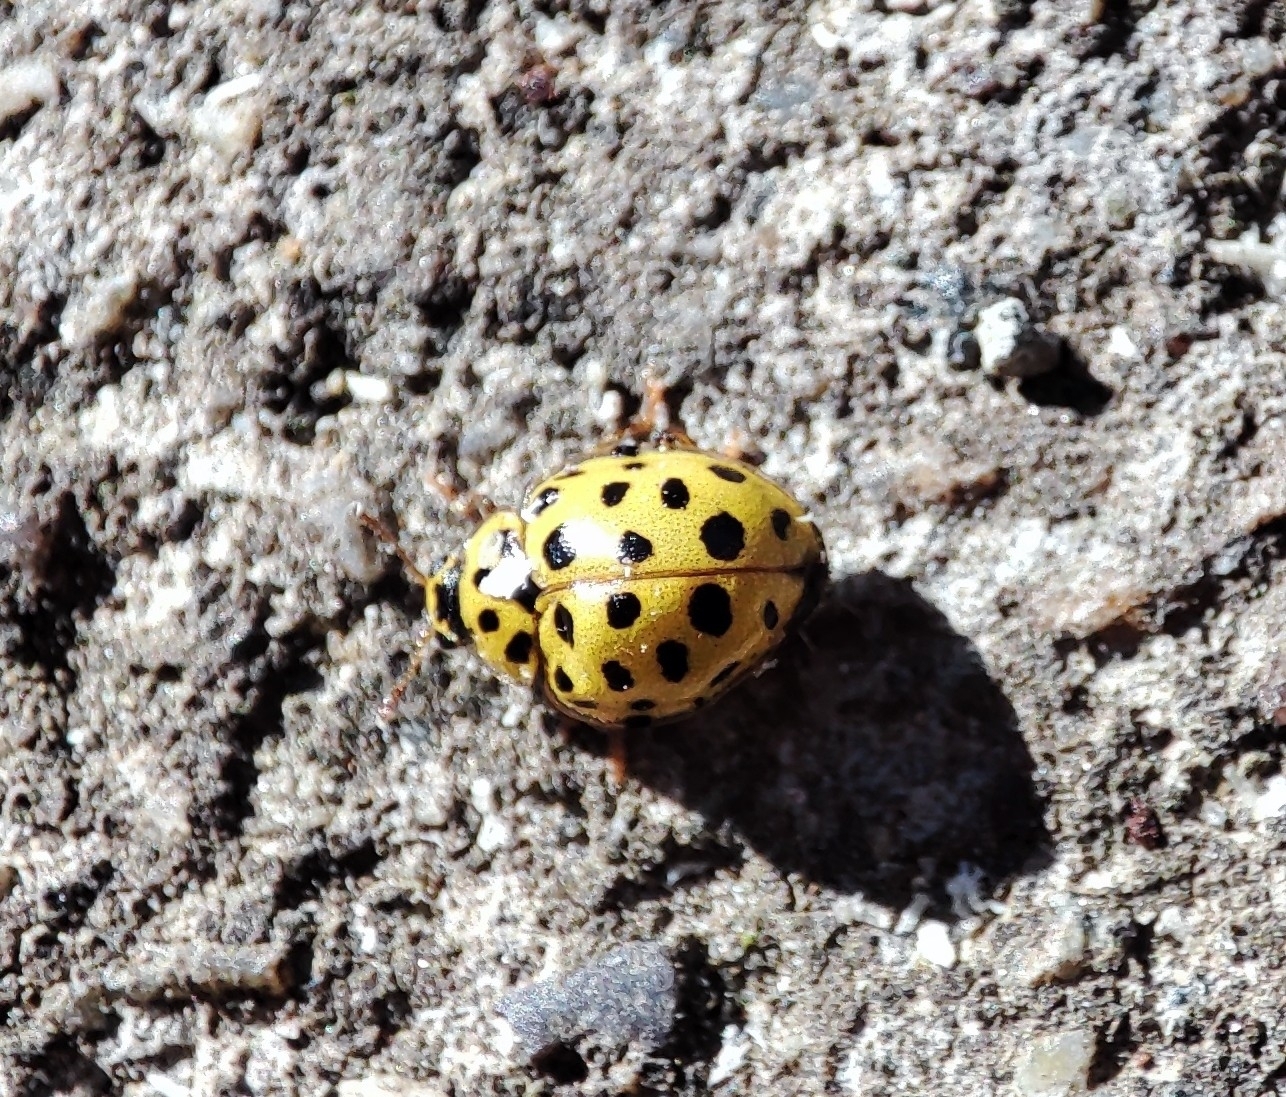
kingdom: Animalia
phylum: Arthropoda
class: Insecta
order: Coleoptera
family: Coccinellidae
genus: Psyllobora
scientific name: Psyllobora vigintiduopunctata
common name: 22-spot ladybird
